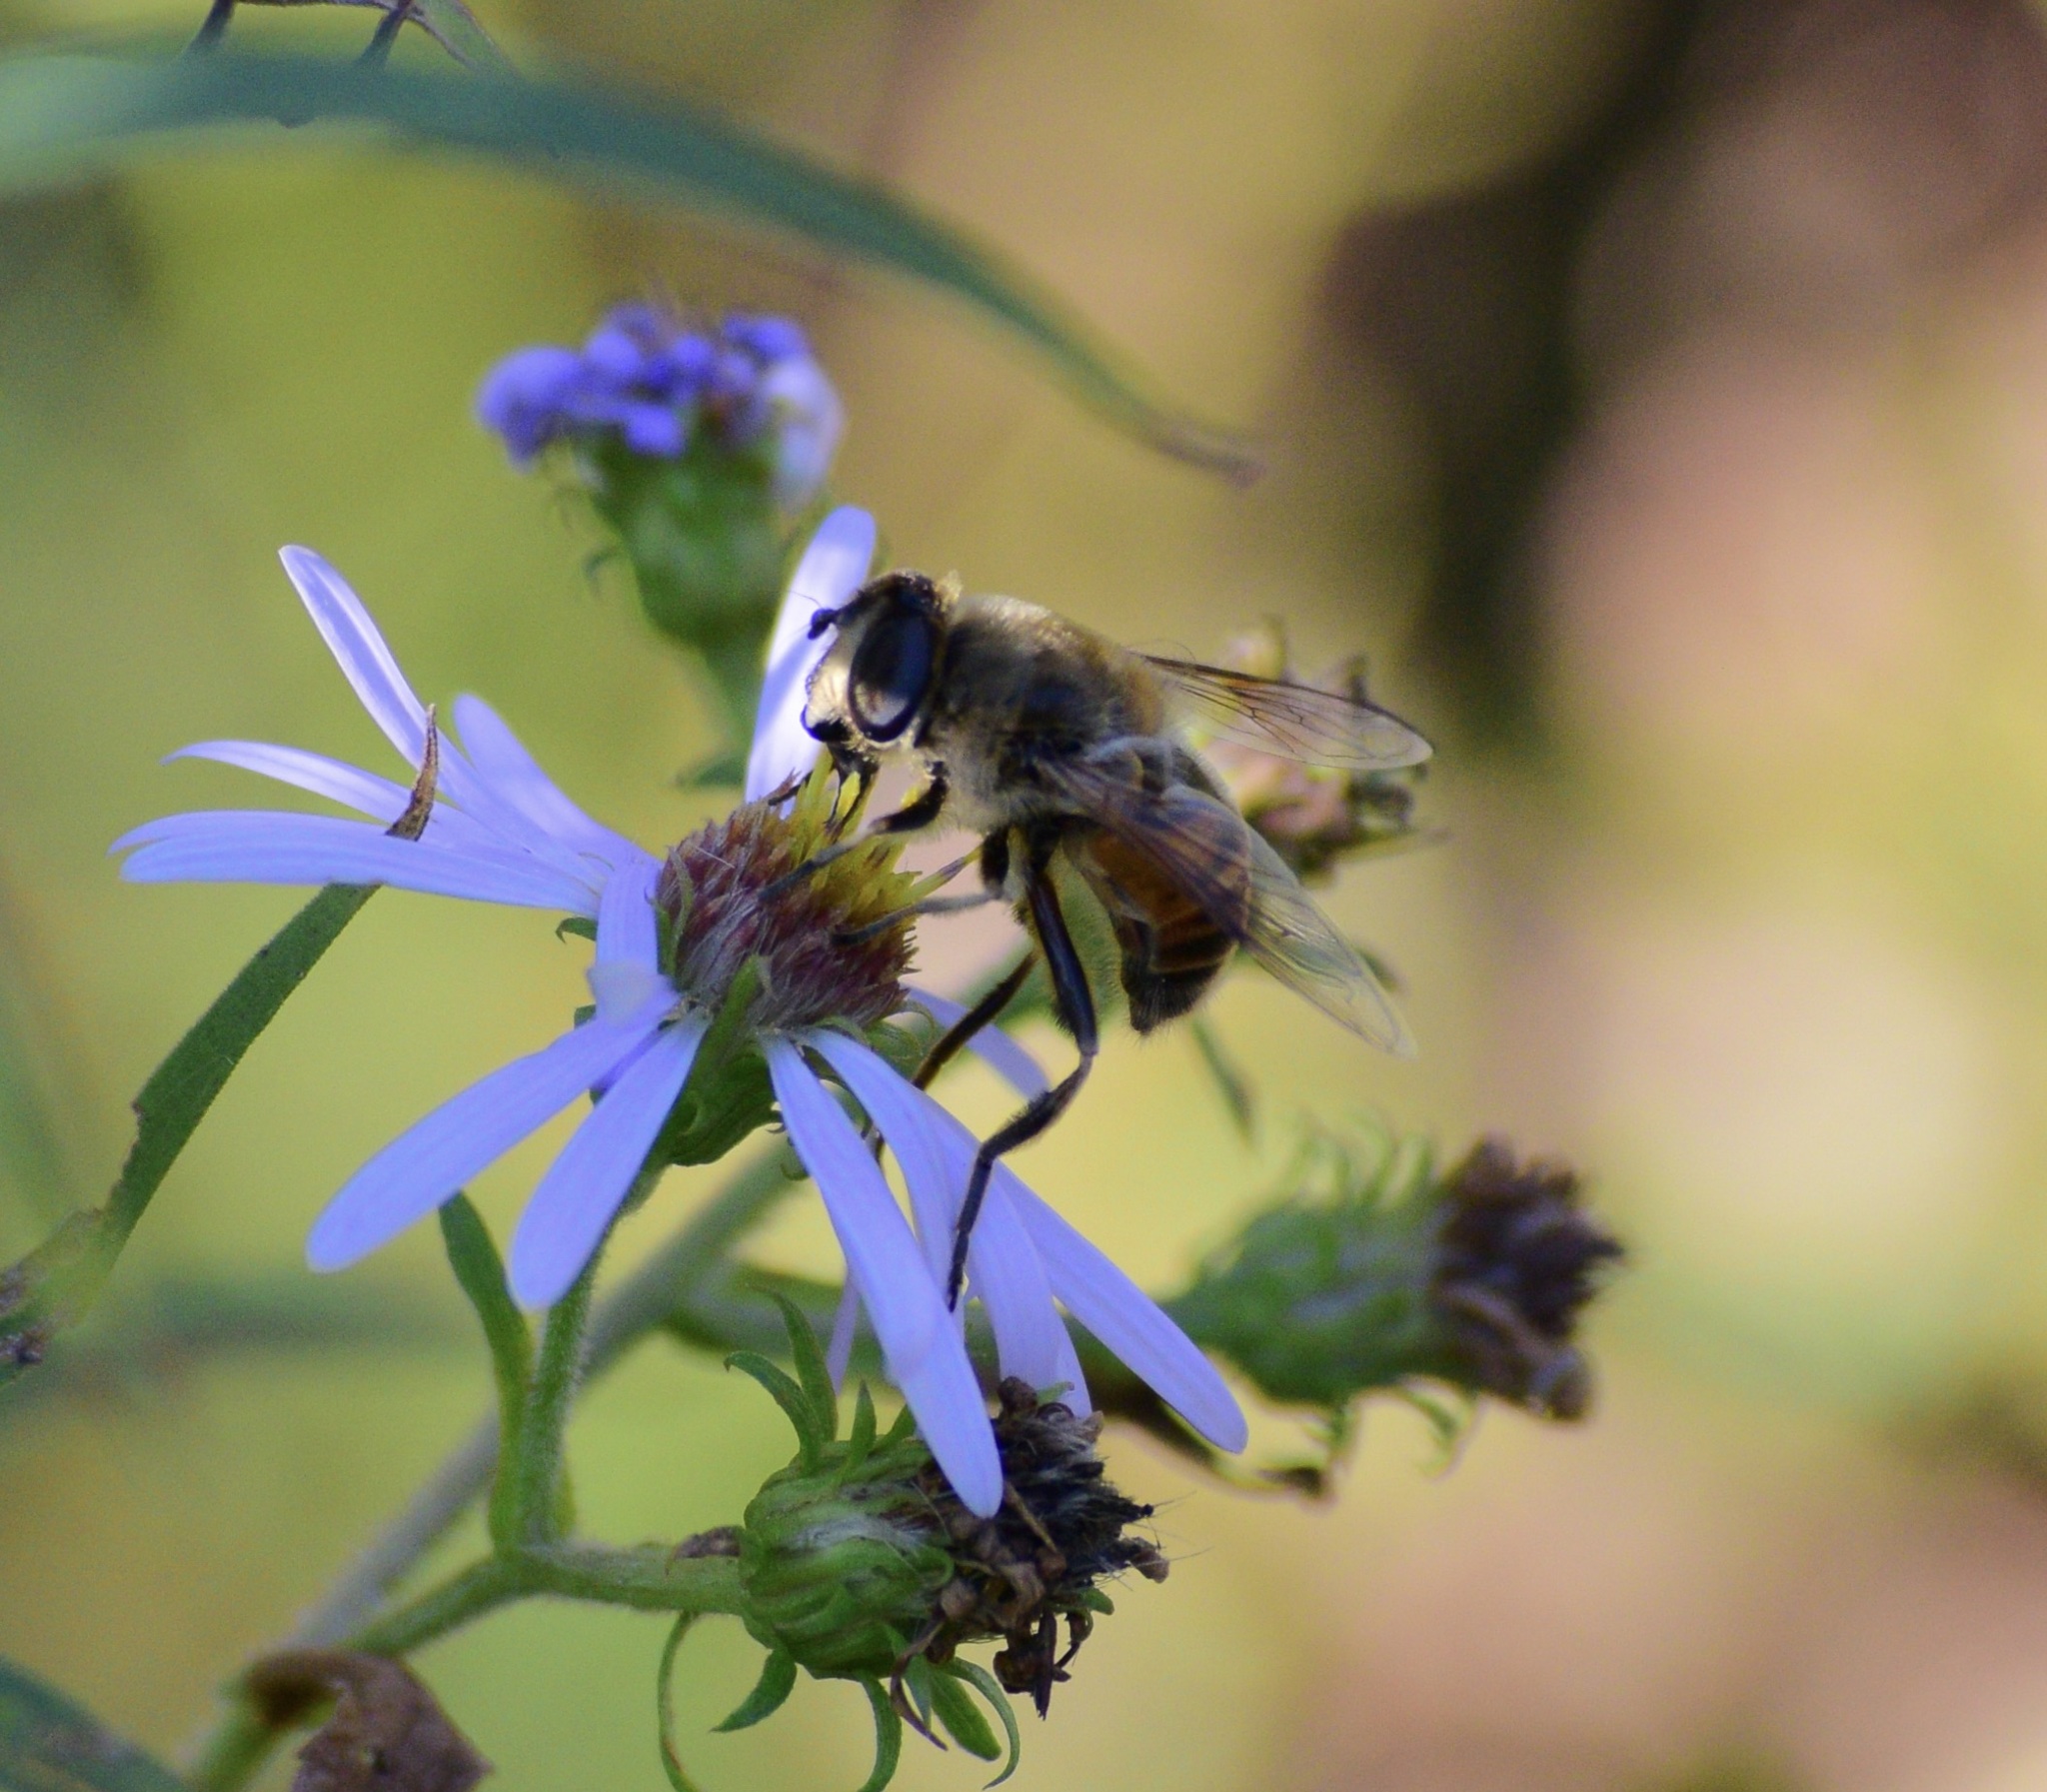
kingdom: Animalia
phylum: Arthropoda
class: Insecta
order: Diptera
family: Syrphidae
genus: Eristalis
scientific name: Eristalis tenax
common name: Drone fly
